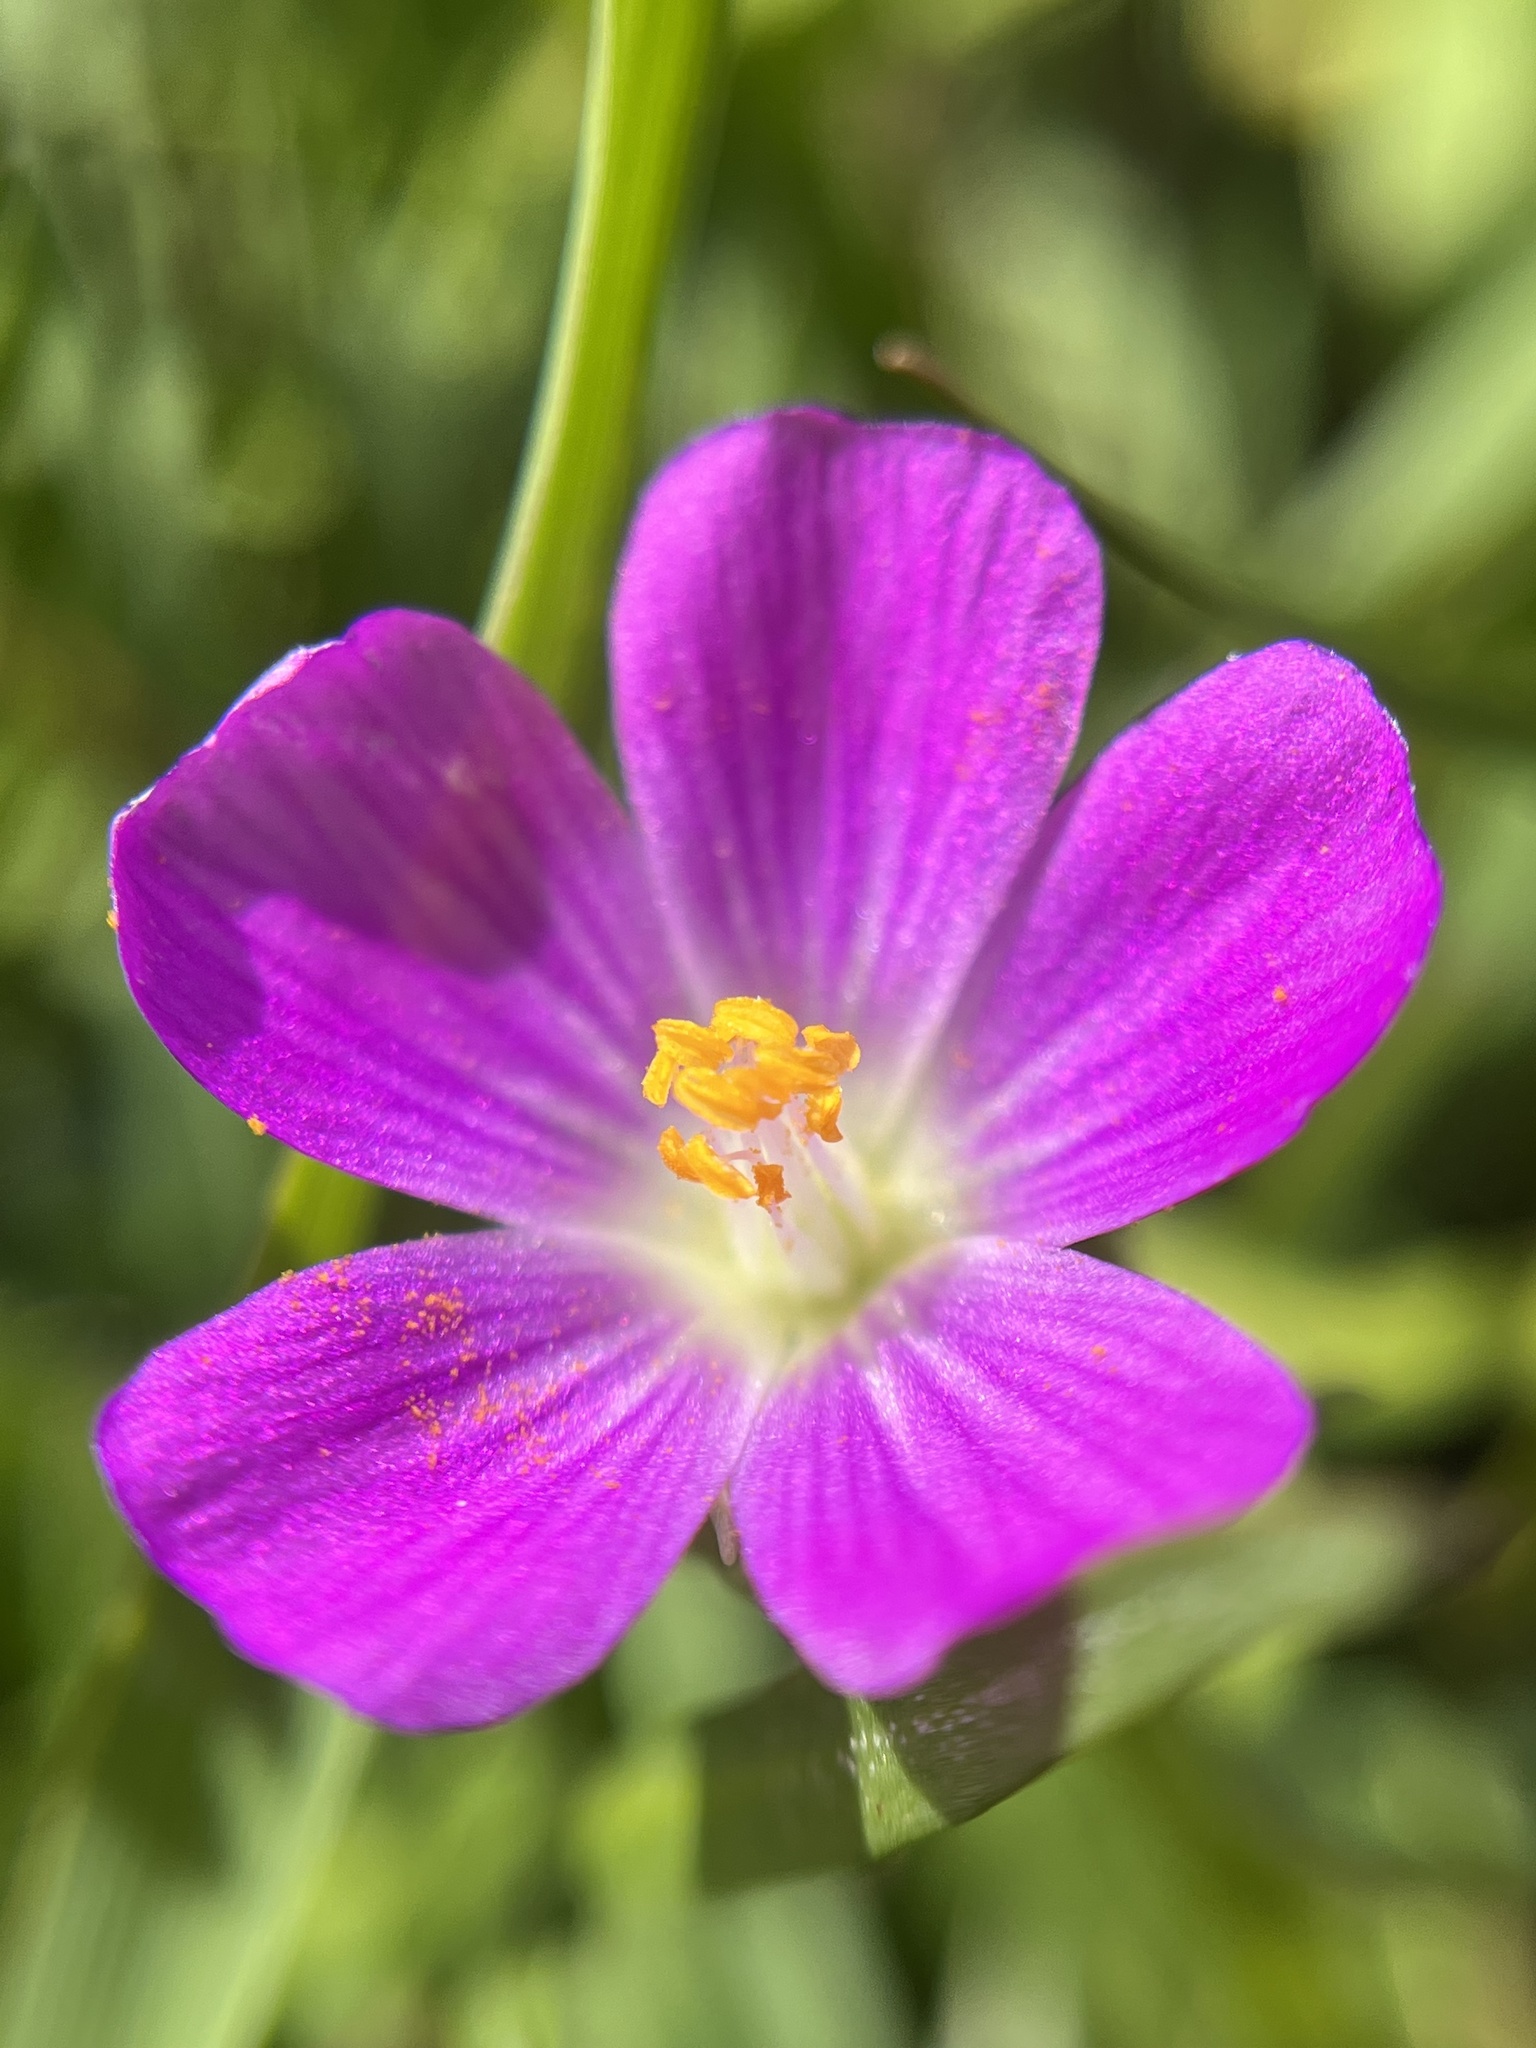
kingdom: Plantae
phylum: Tracheophyta
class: Magnoliopsida
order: Caryophyllales
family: Montiaceae
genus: Calandrinia
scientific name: Calandrinia menziesii
